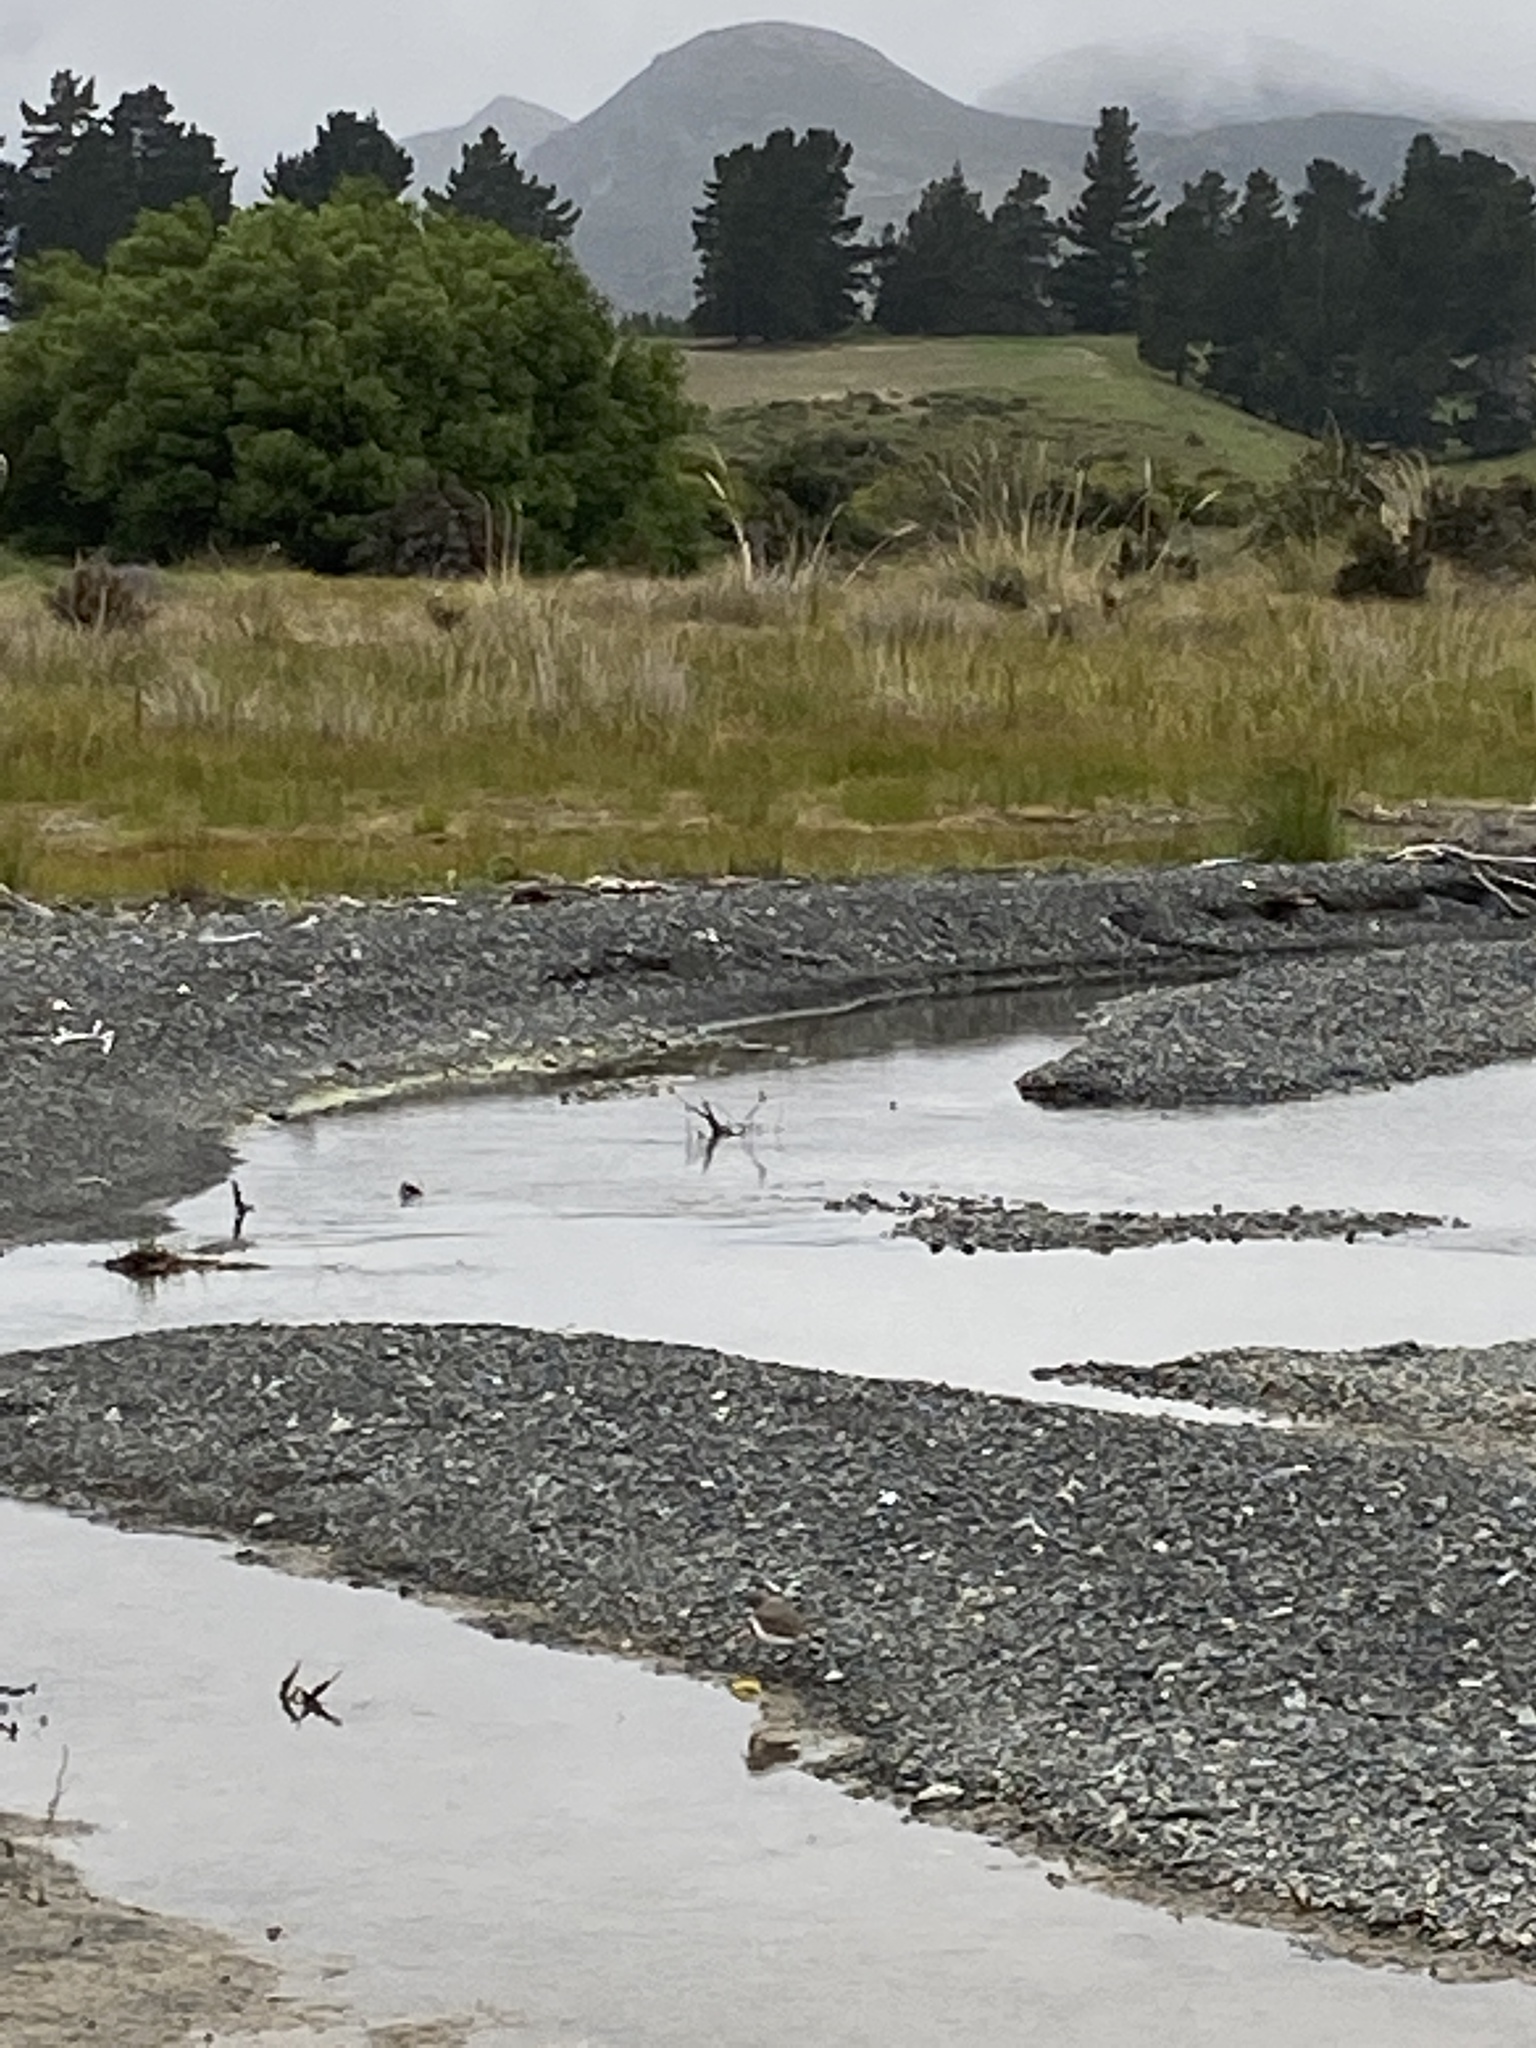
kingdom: Animalia
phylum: Chordata
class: Aves
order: Charadriiformes
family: Charadriidae
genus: Anarhynchus
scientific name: Anarhynchus
